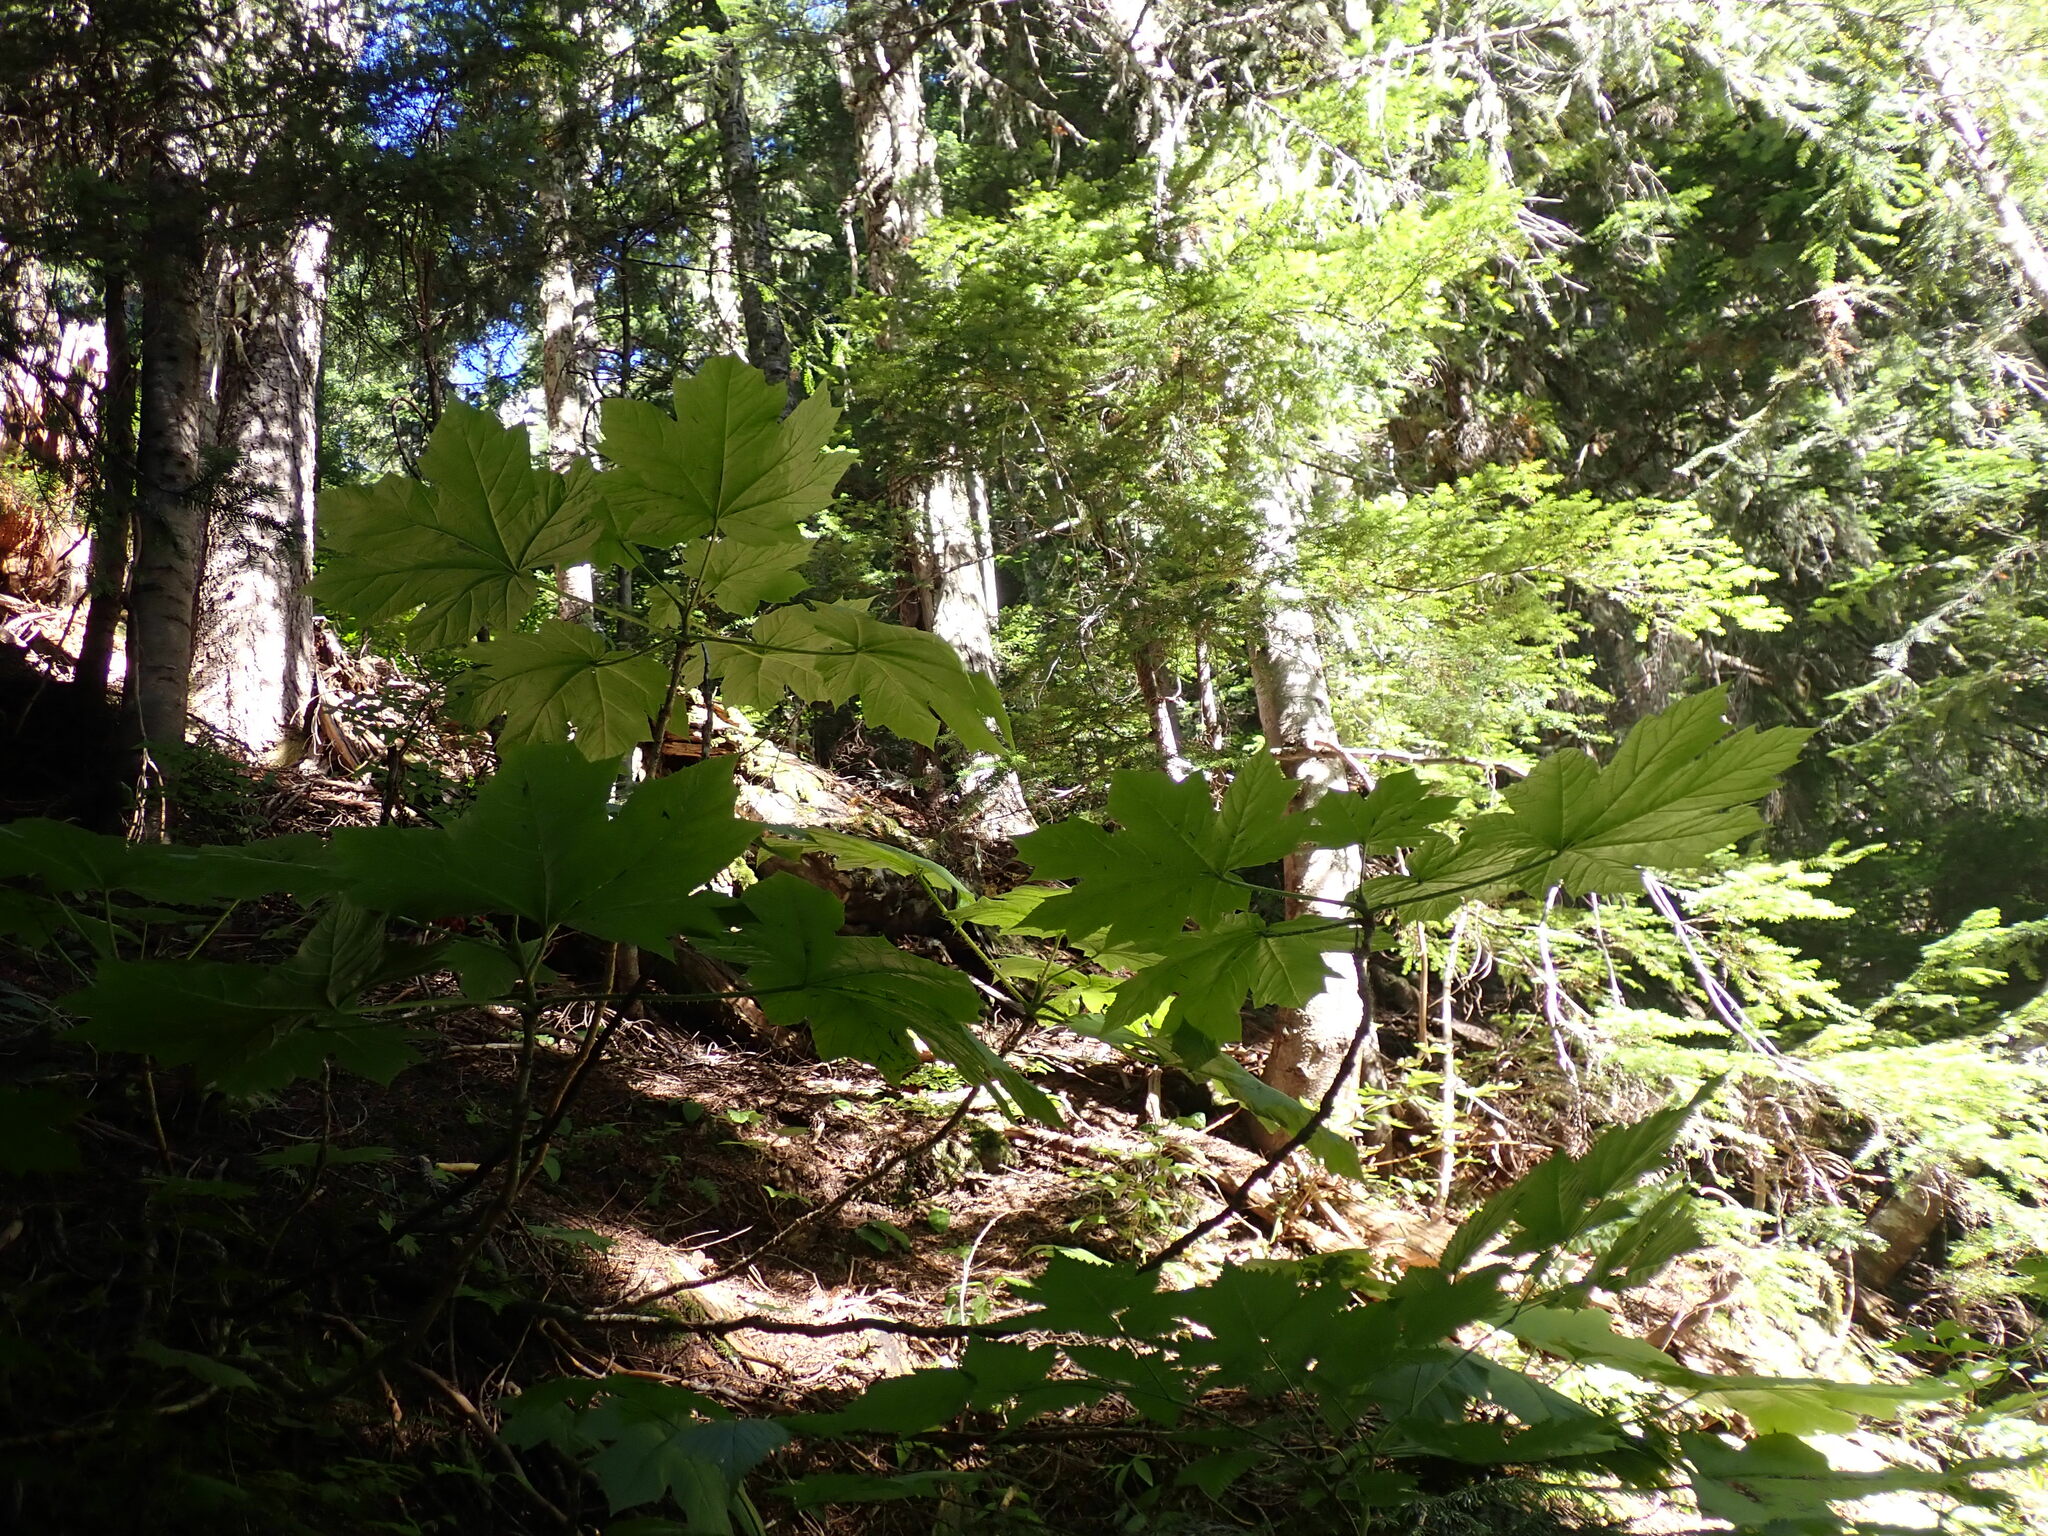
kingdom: Plantae
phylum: Tracheophyta
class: Magnoliopsida
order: Apiales
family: Araliaceae
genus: Oplopanax
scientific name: Oplopanax horridus
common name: Devil's walking-stick
